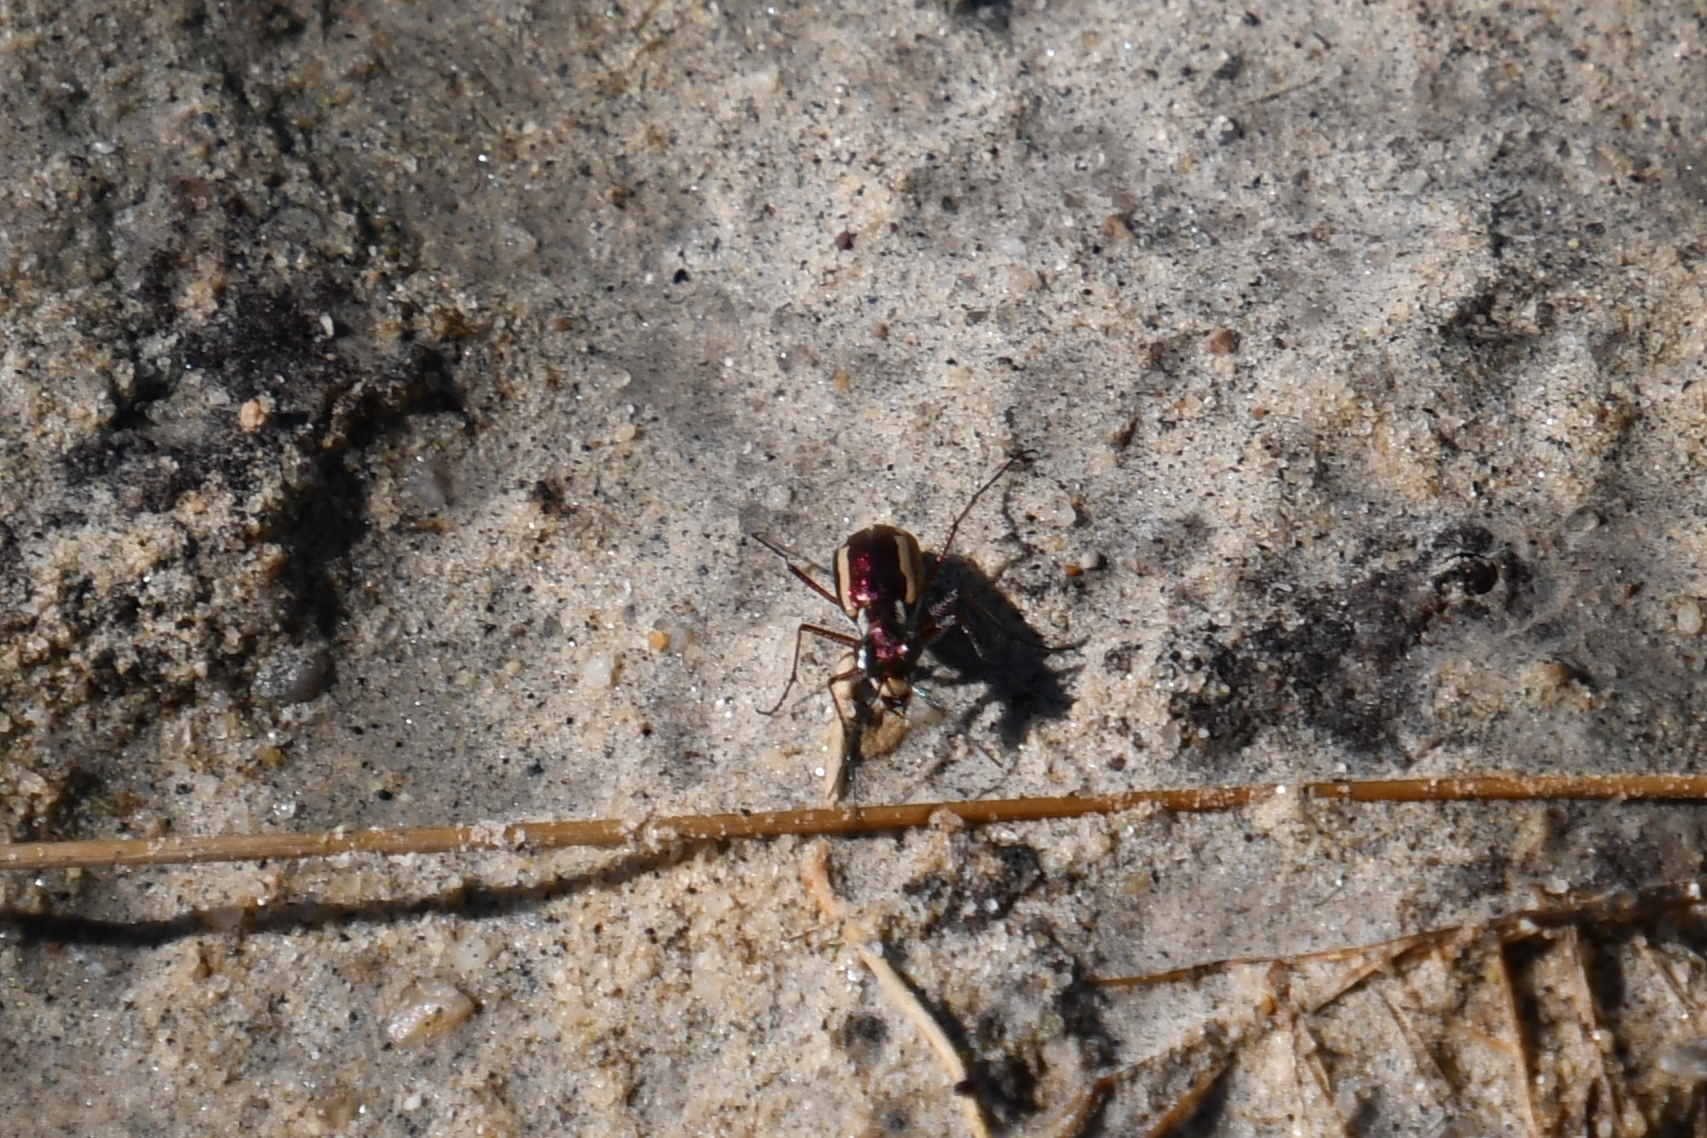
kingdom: Animalia
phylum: Arthropoda
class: Insecta
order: Coleoptera
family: Carabidae
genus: Cylindera
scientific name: Cylindera lemniscata
